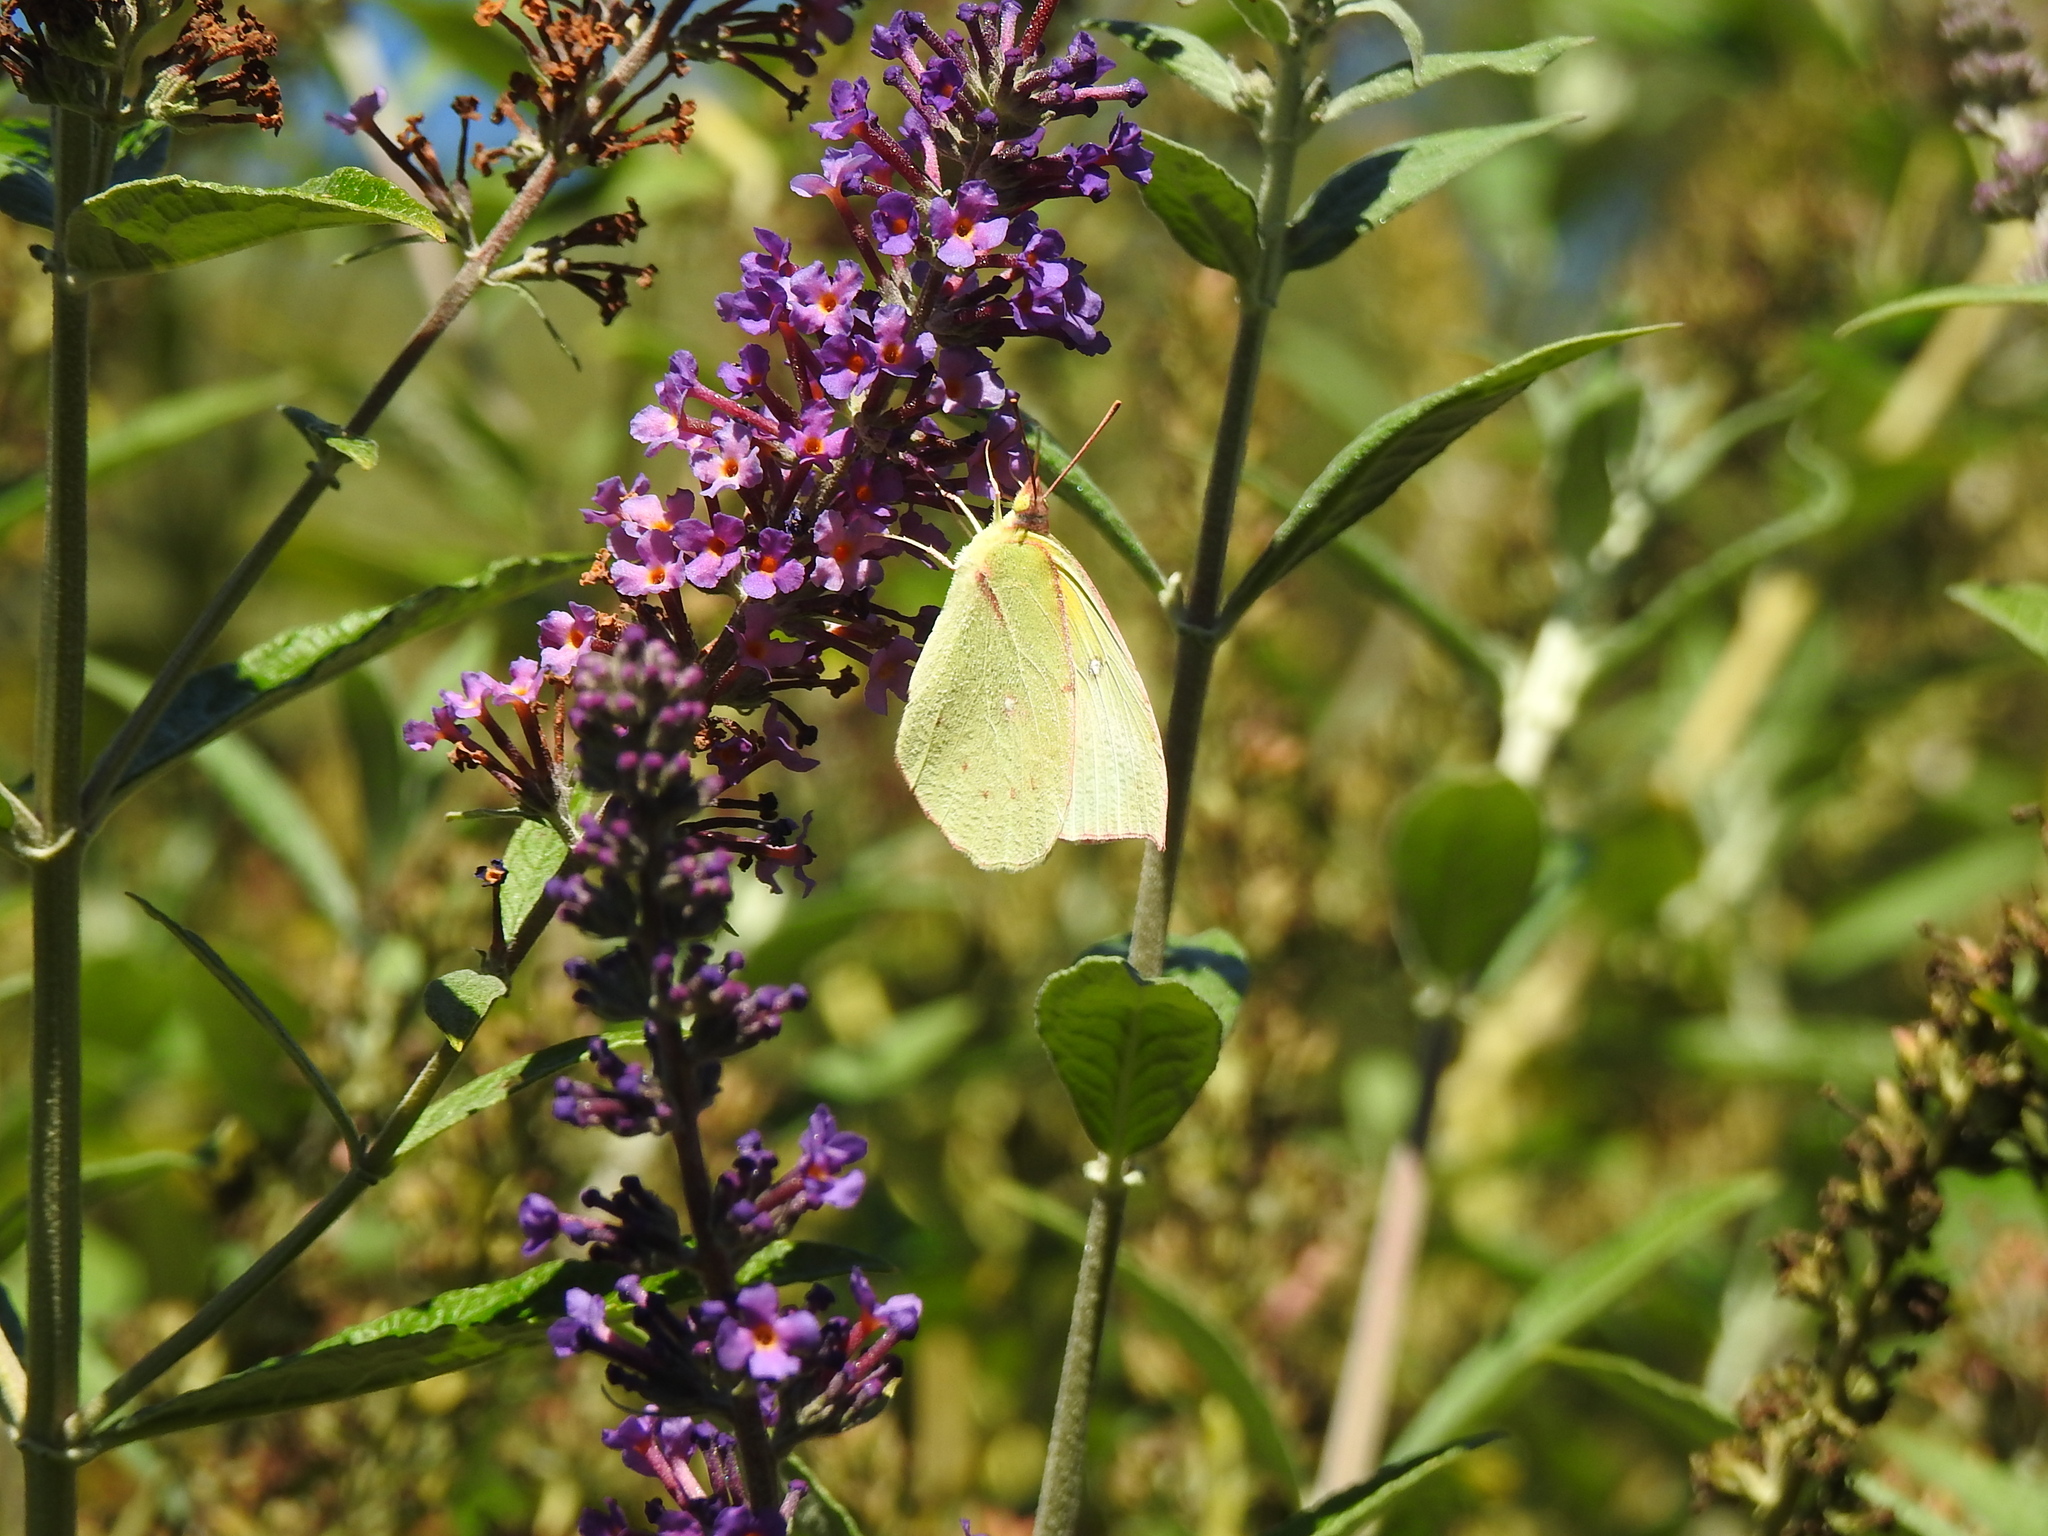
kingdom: Animalia
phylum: Arthropoda
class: Insecta
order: Lepidoptera
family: Pieridae
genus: Zerene
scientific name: Zerene eurydice
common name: California dogface
